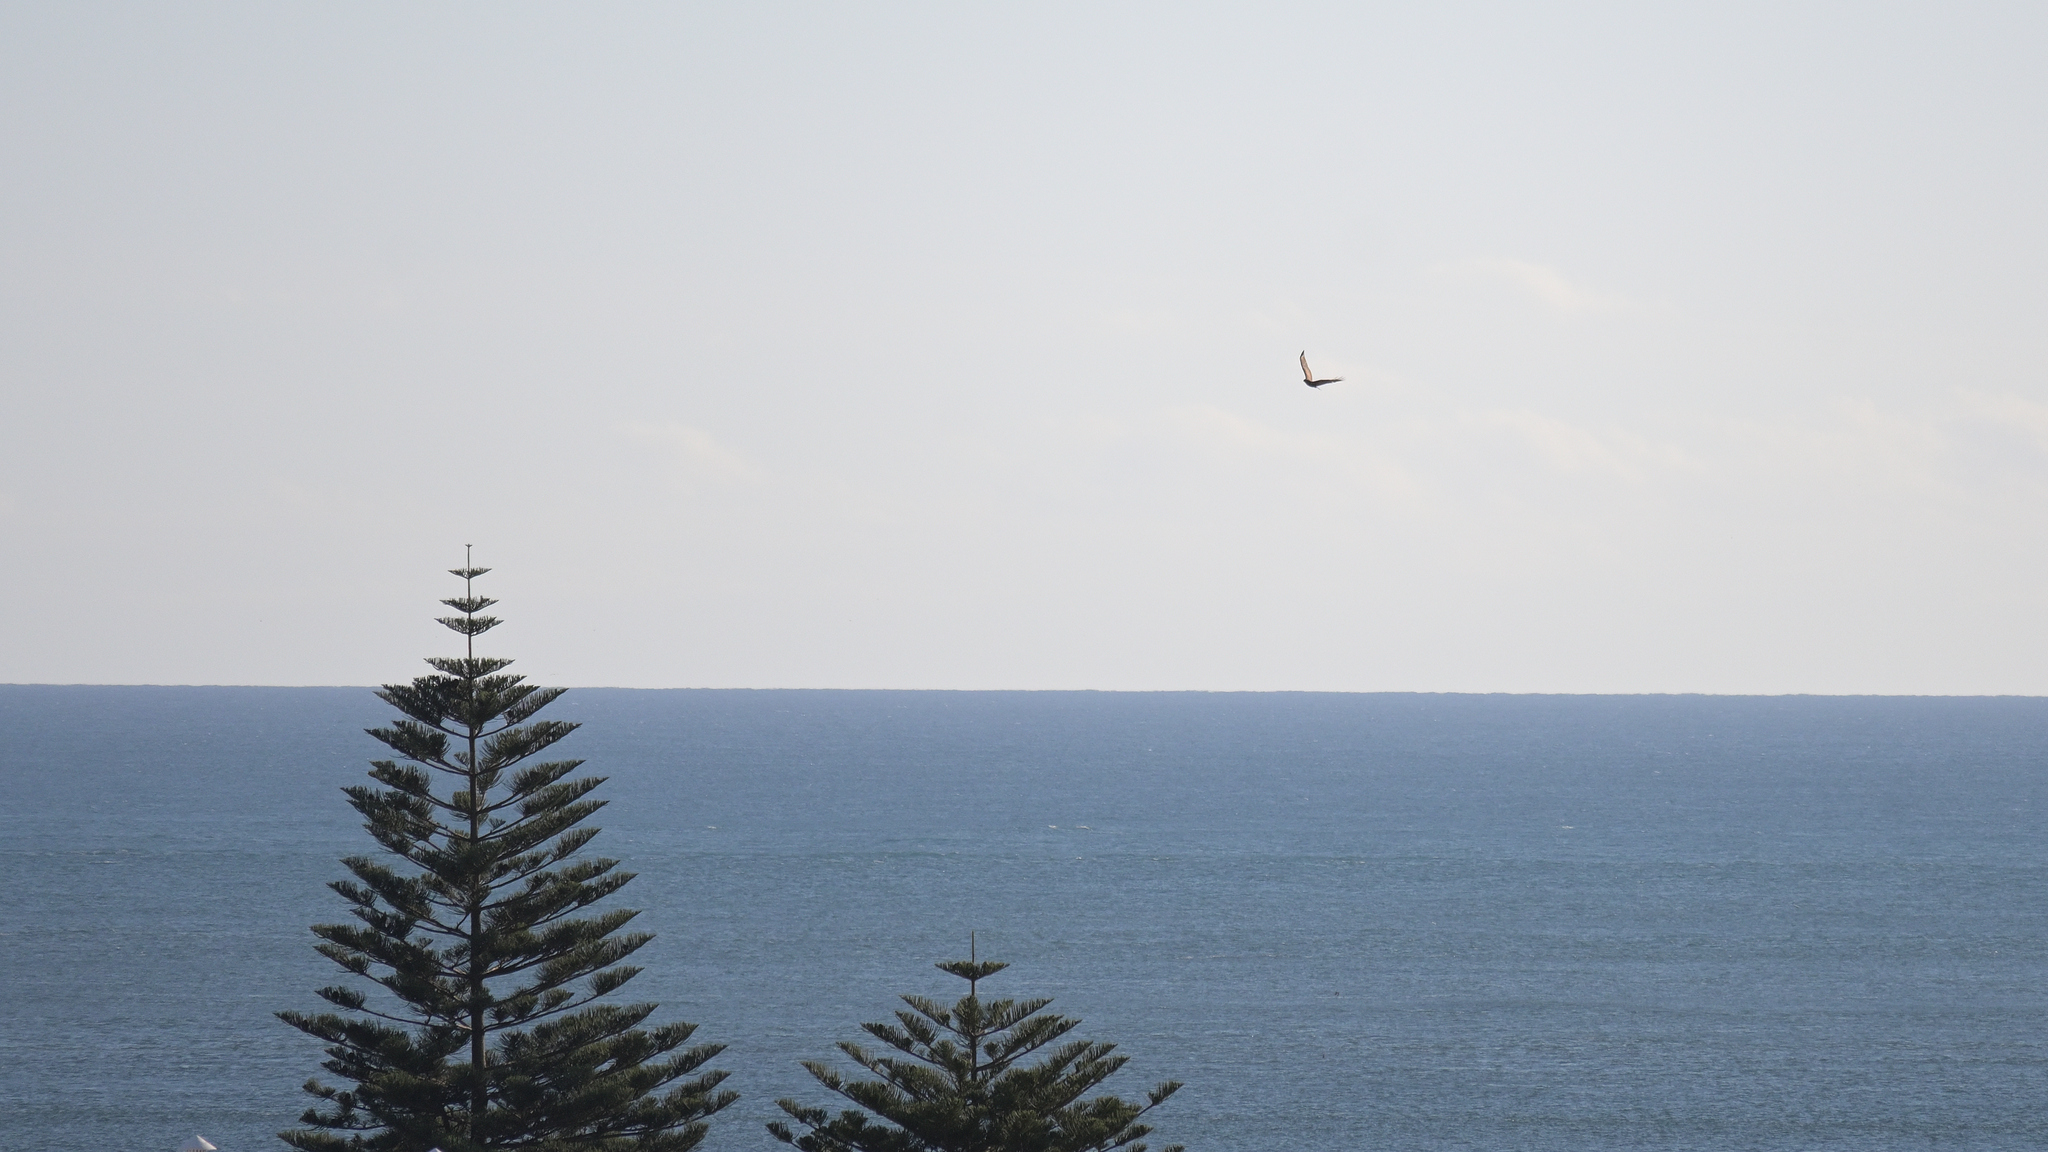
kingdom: Animalia
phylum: Chordata
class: Aves
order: Accipitriformes
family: Accipitridae
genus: Buteo
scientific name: Buteo buteo
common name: Common buzzard
